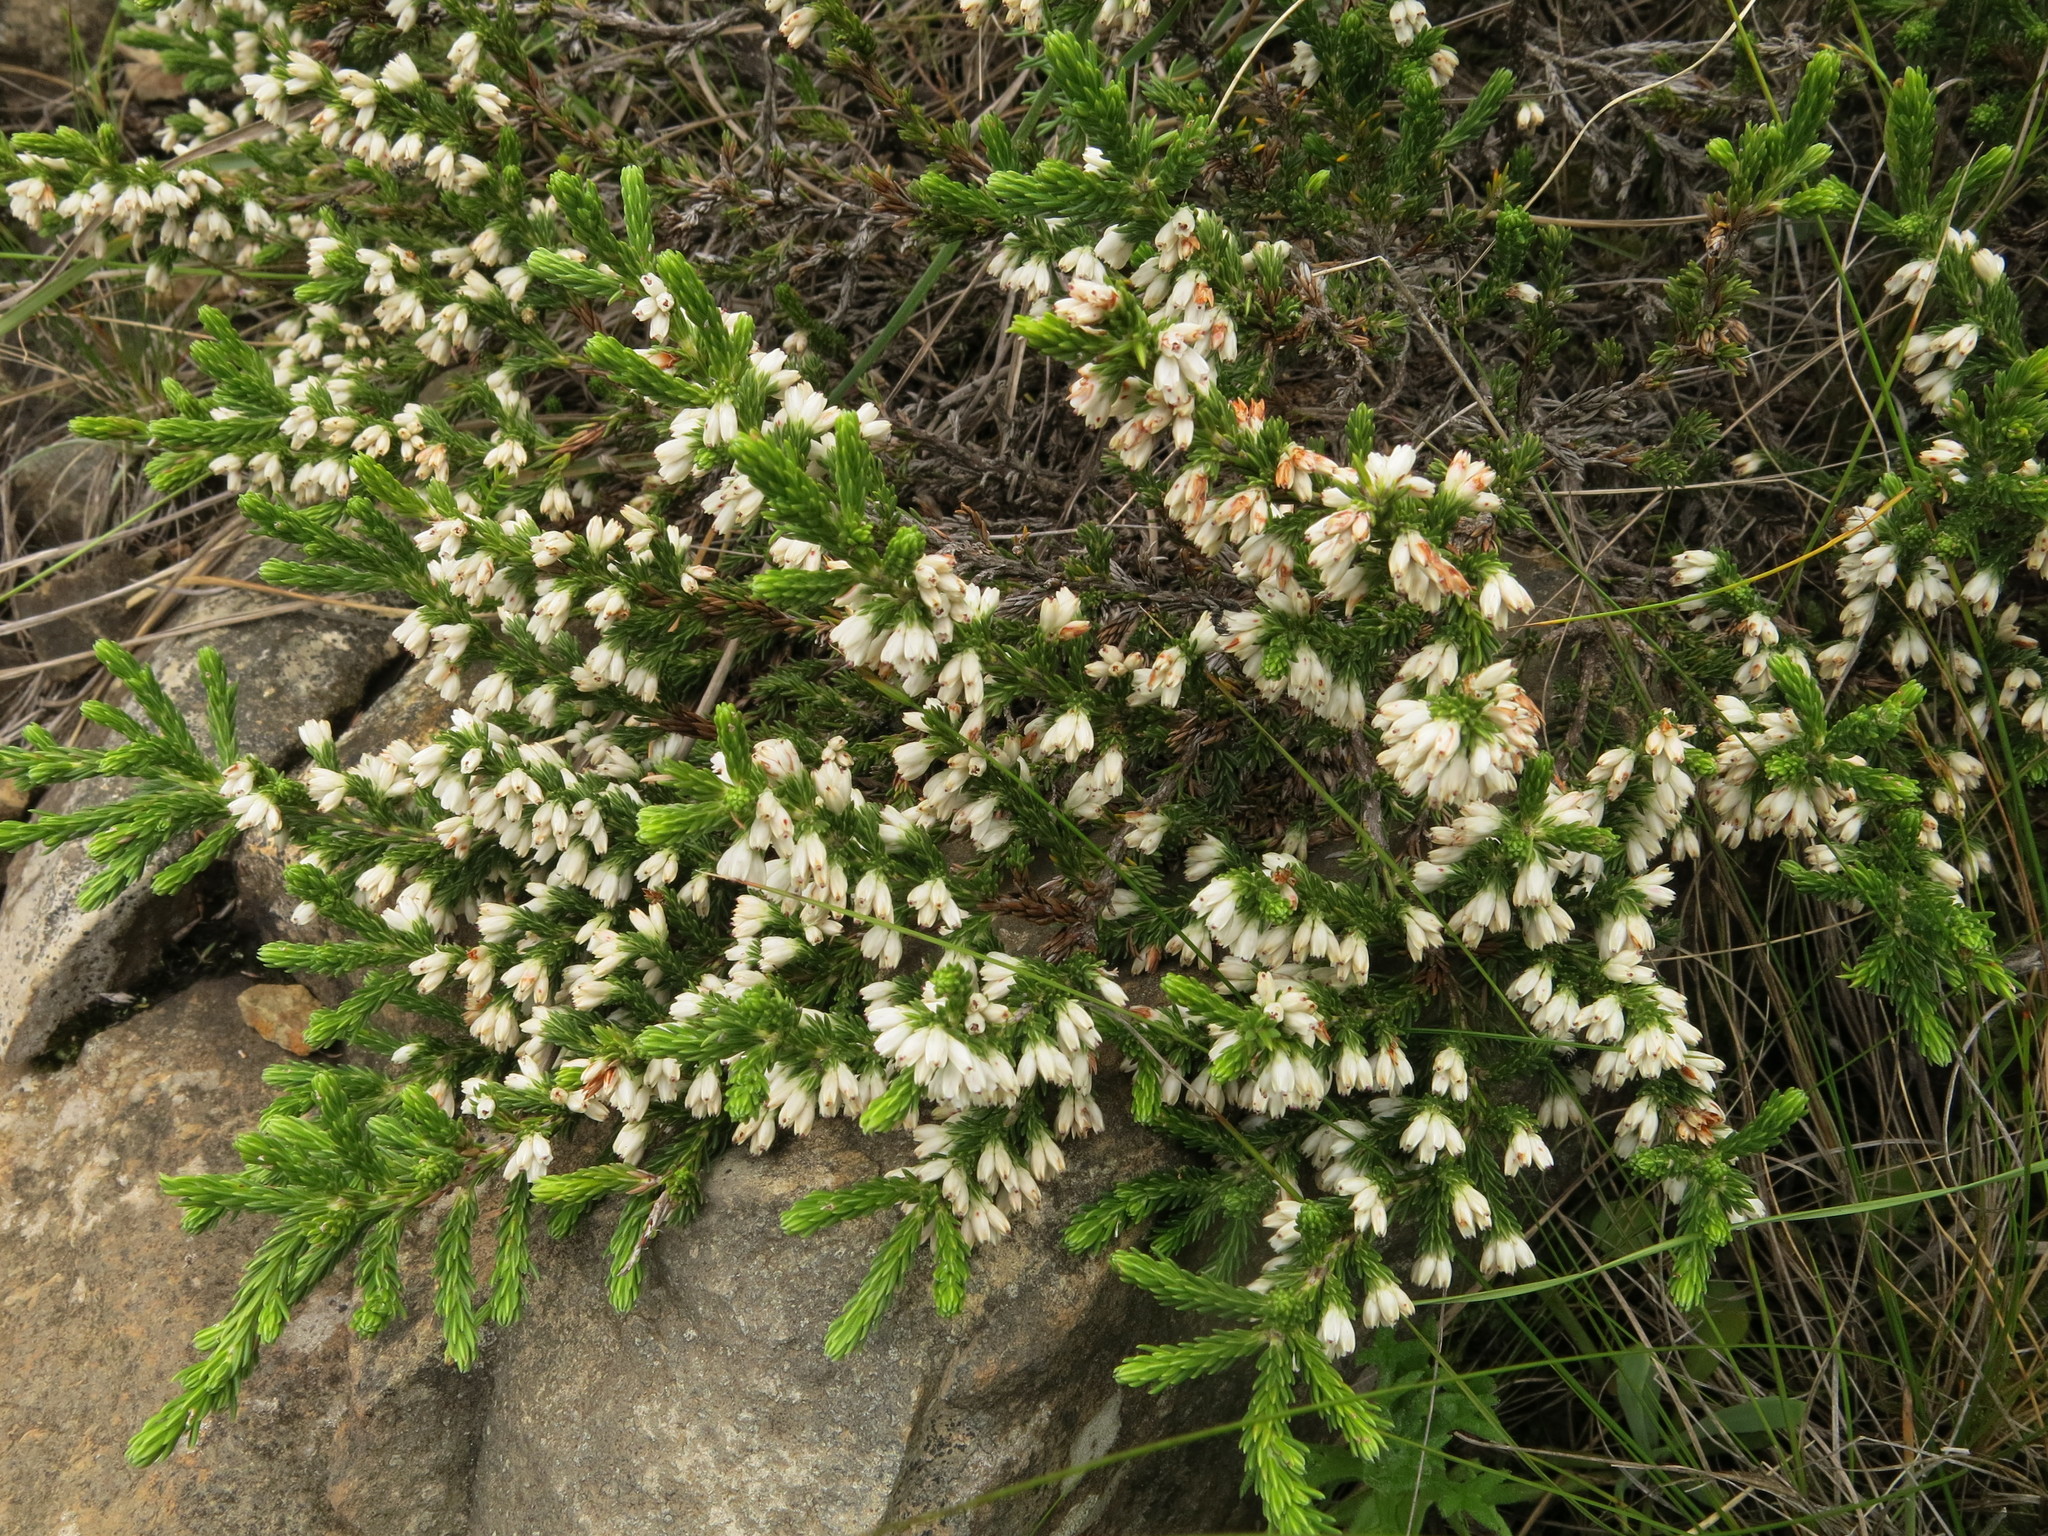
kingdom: Plantae
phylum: Tracheophyta
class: Magnoliopsida
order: Ericales
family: Ericaceae
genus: Erica
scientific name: Erica caffrorum
